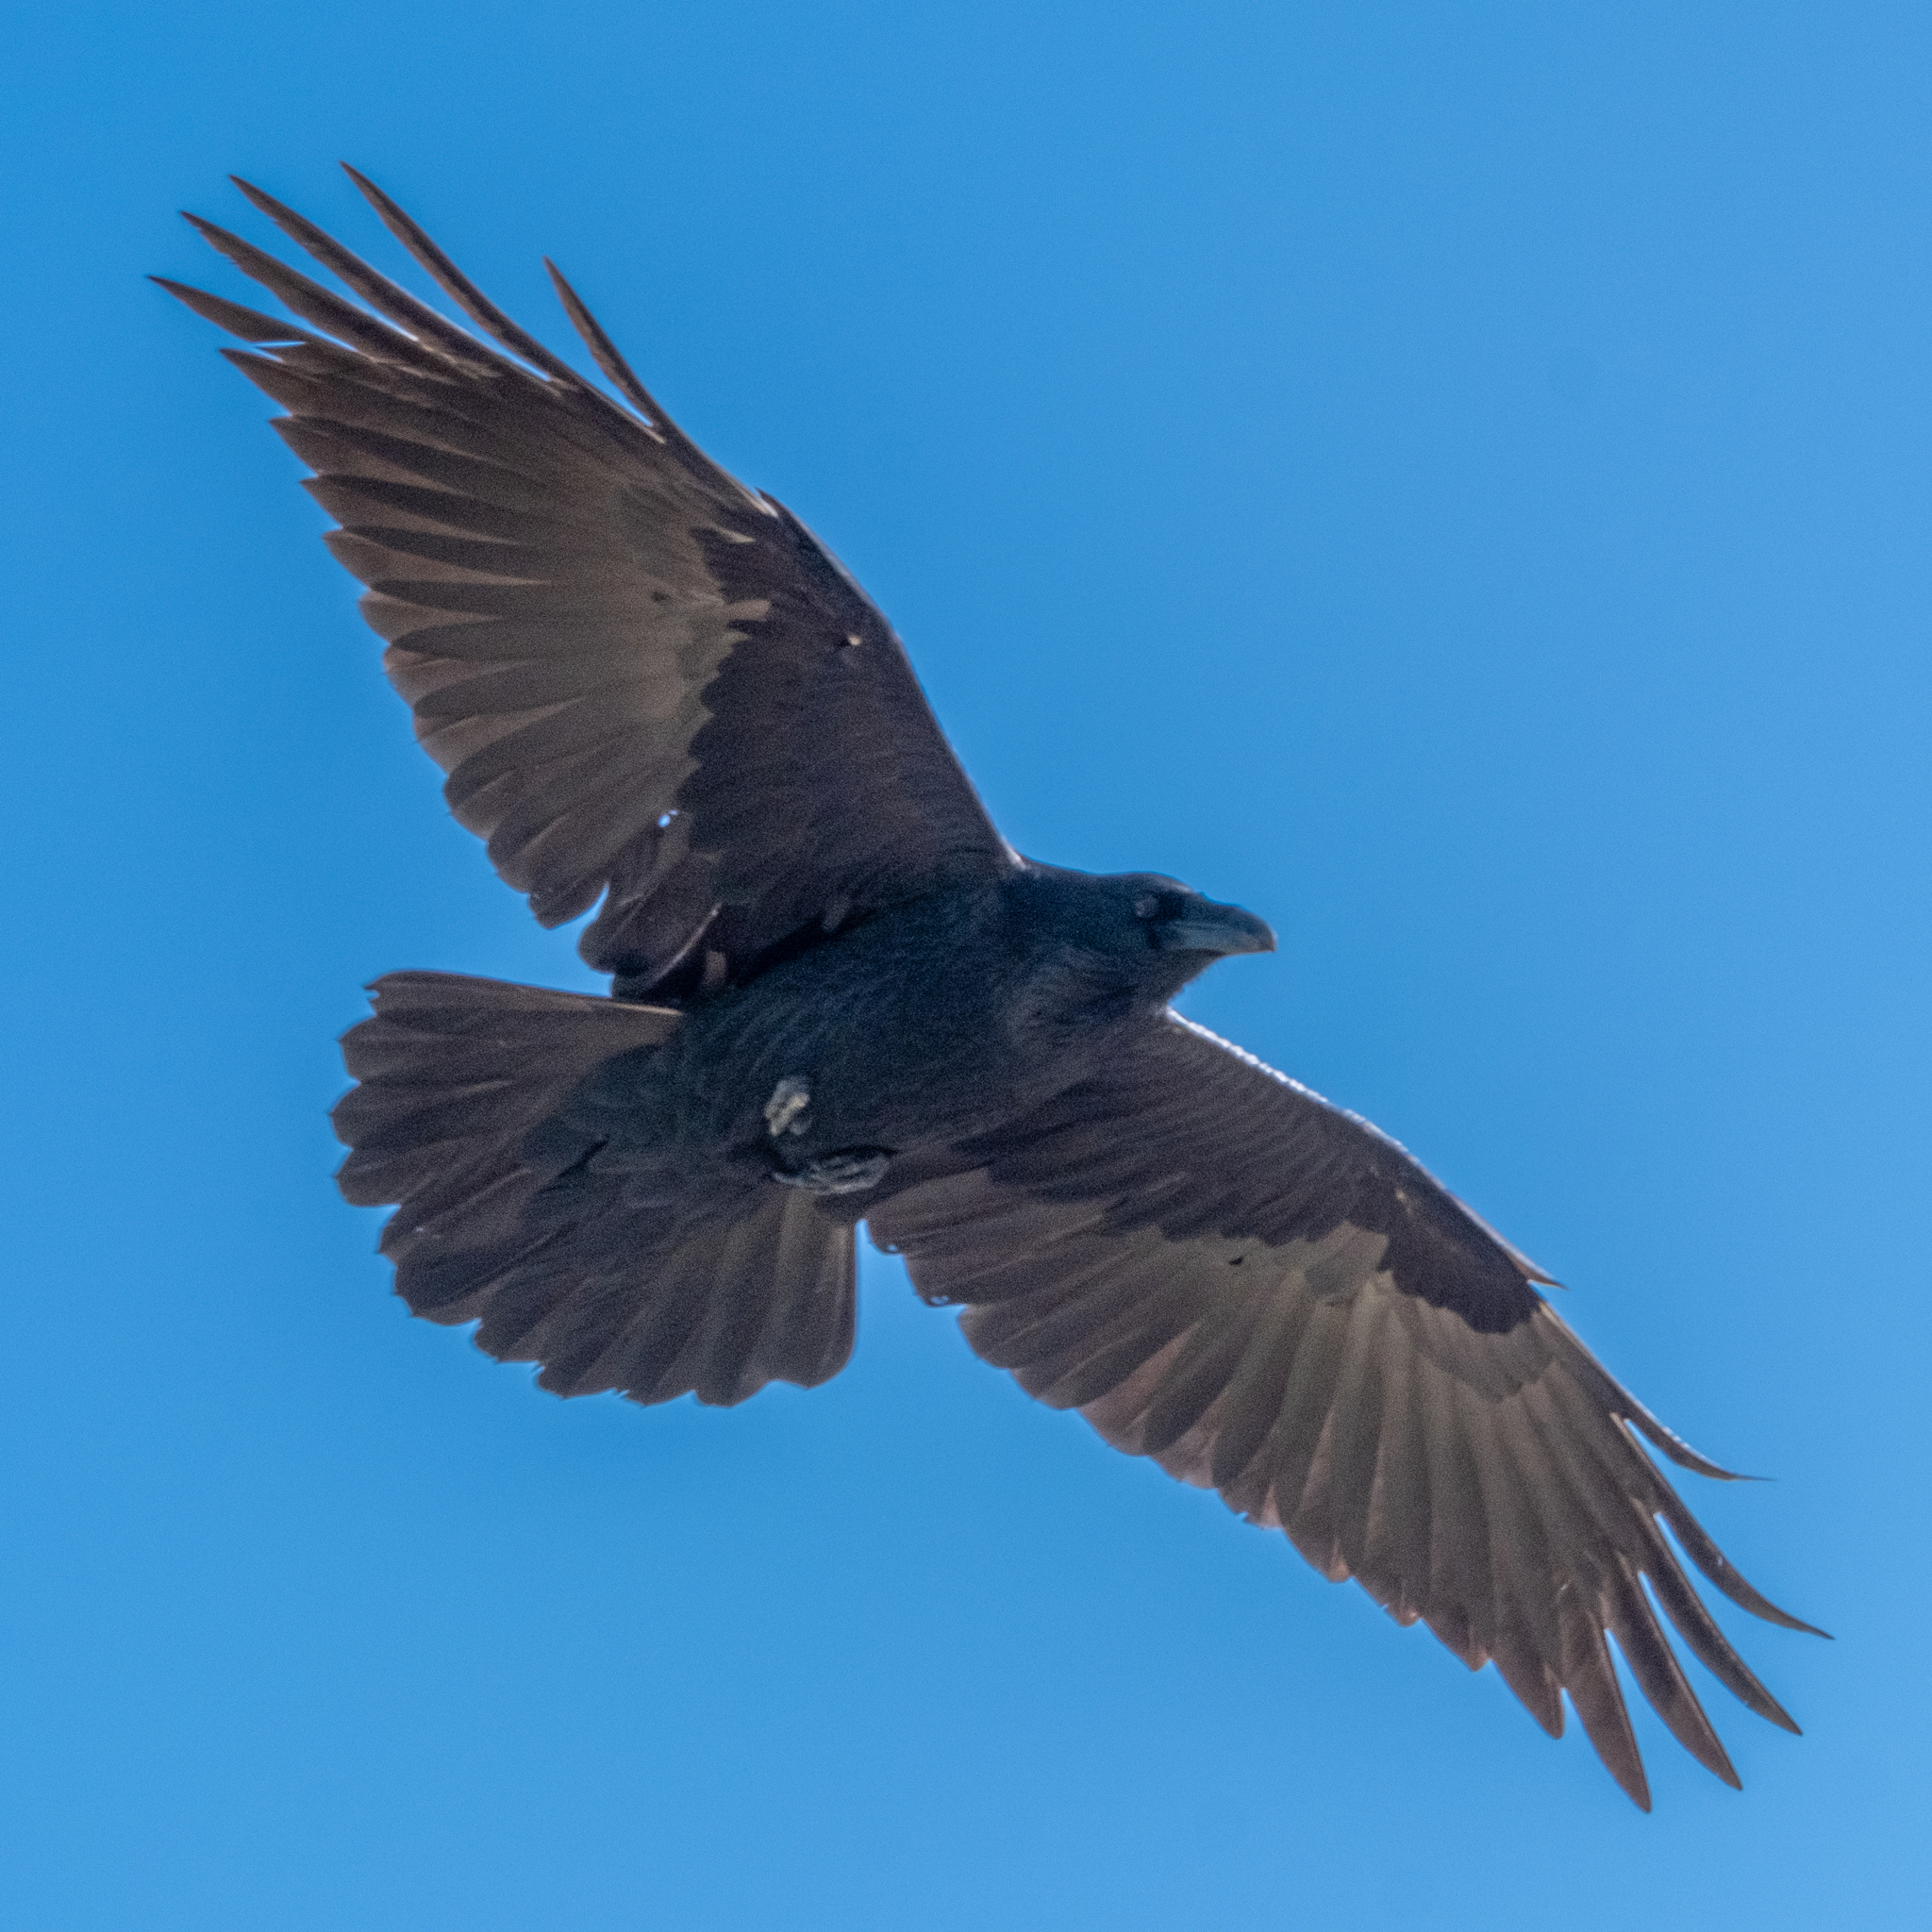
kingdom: Animalia
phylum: Chordata
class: Aves
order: Passeriformes
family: Corvidae
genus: Corvus
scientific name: Corvus corax
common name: Common raven
